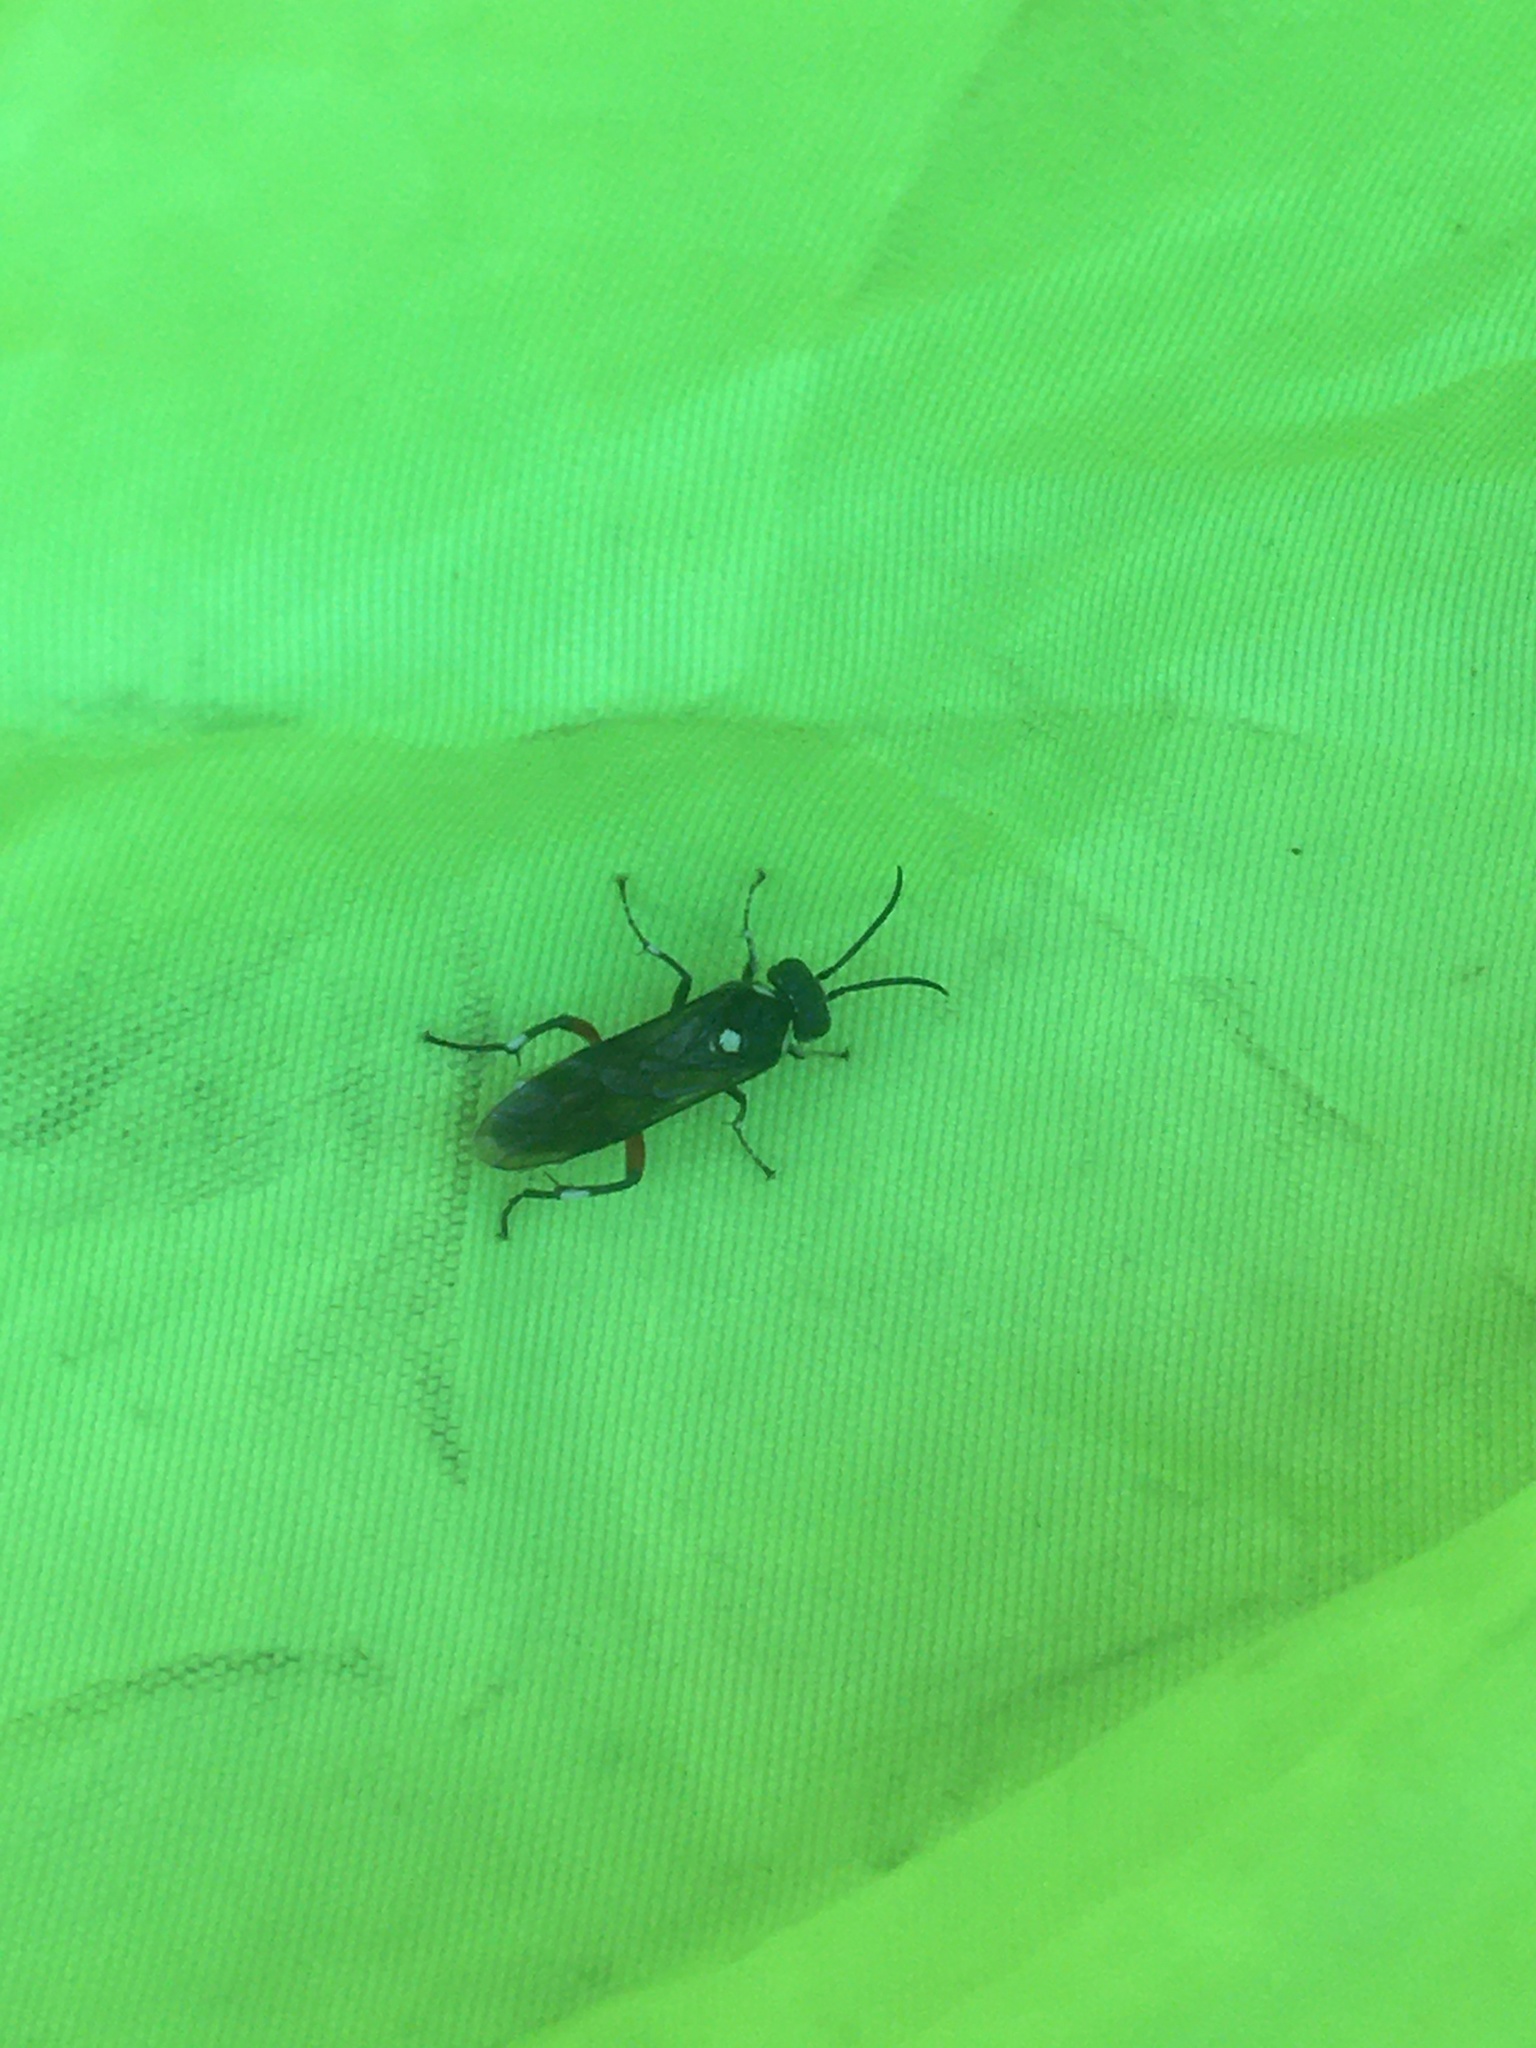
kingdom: Animalia
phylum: Arthropoda
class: Insecta
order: Hymenoptera
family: Tenthredinidae
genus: Macrophya
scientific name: Macrophya punctumalbum
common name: Sawfly
